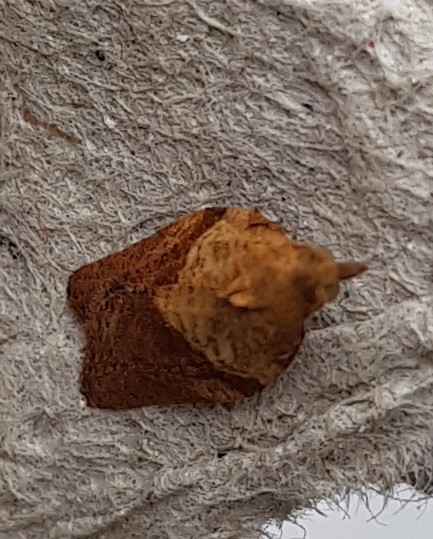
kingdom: Animalia
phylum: Arthropoda
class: Insecta
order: Lepidoptera
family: Tortricidae
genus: Epiphyas
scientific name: Epiphyas postvittana
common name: Light brown apple moth
